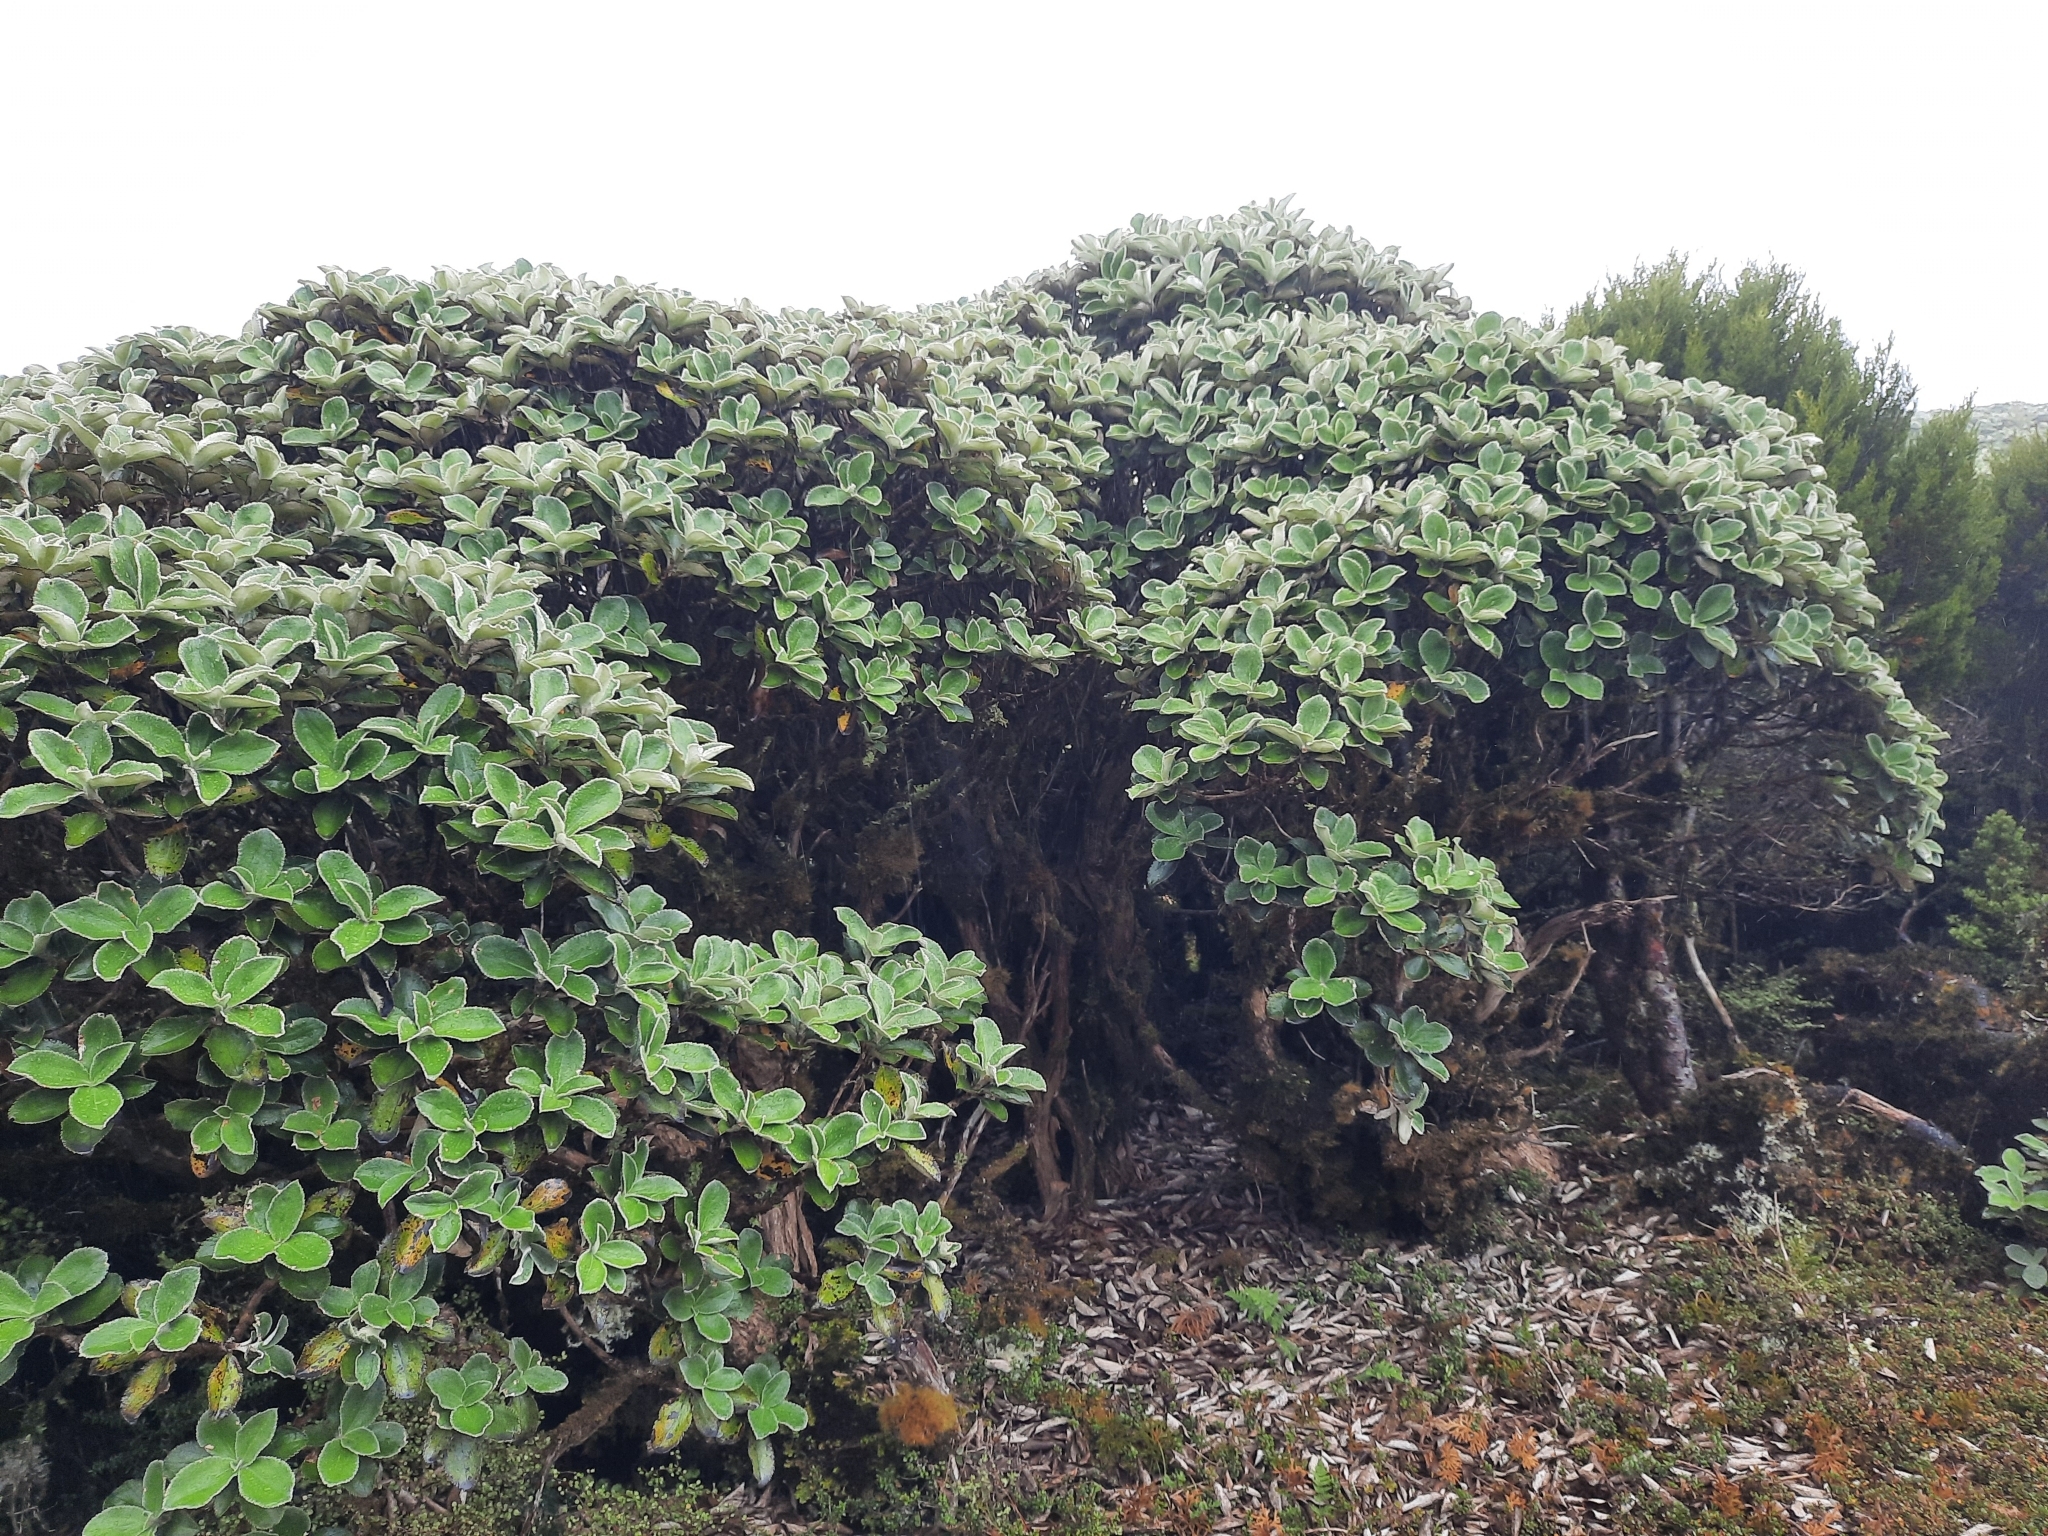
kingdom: Plantae
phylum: Tracheophyta
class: Magnoliopsida
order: Asterales
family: Asteraceae
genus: Macrolearia
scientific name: Macrolearia colensoi
